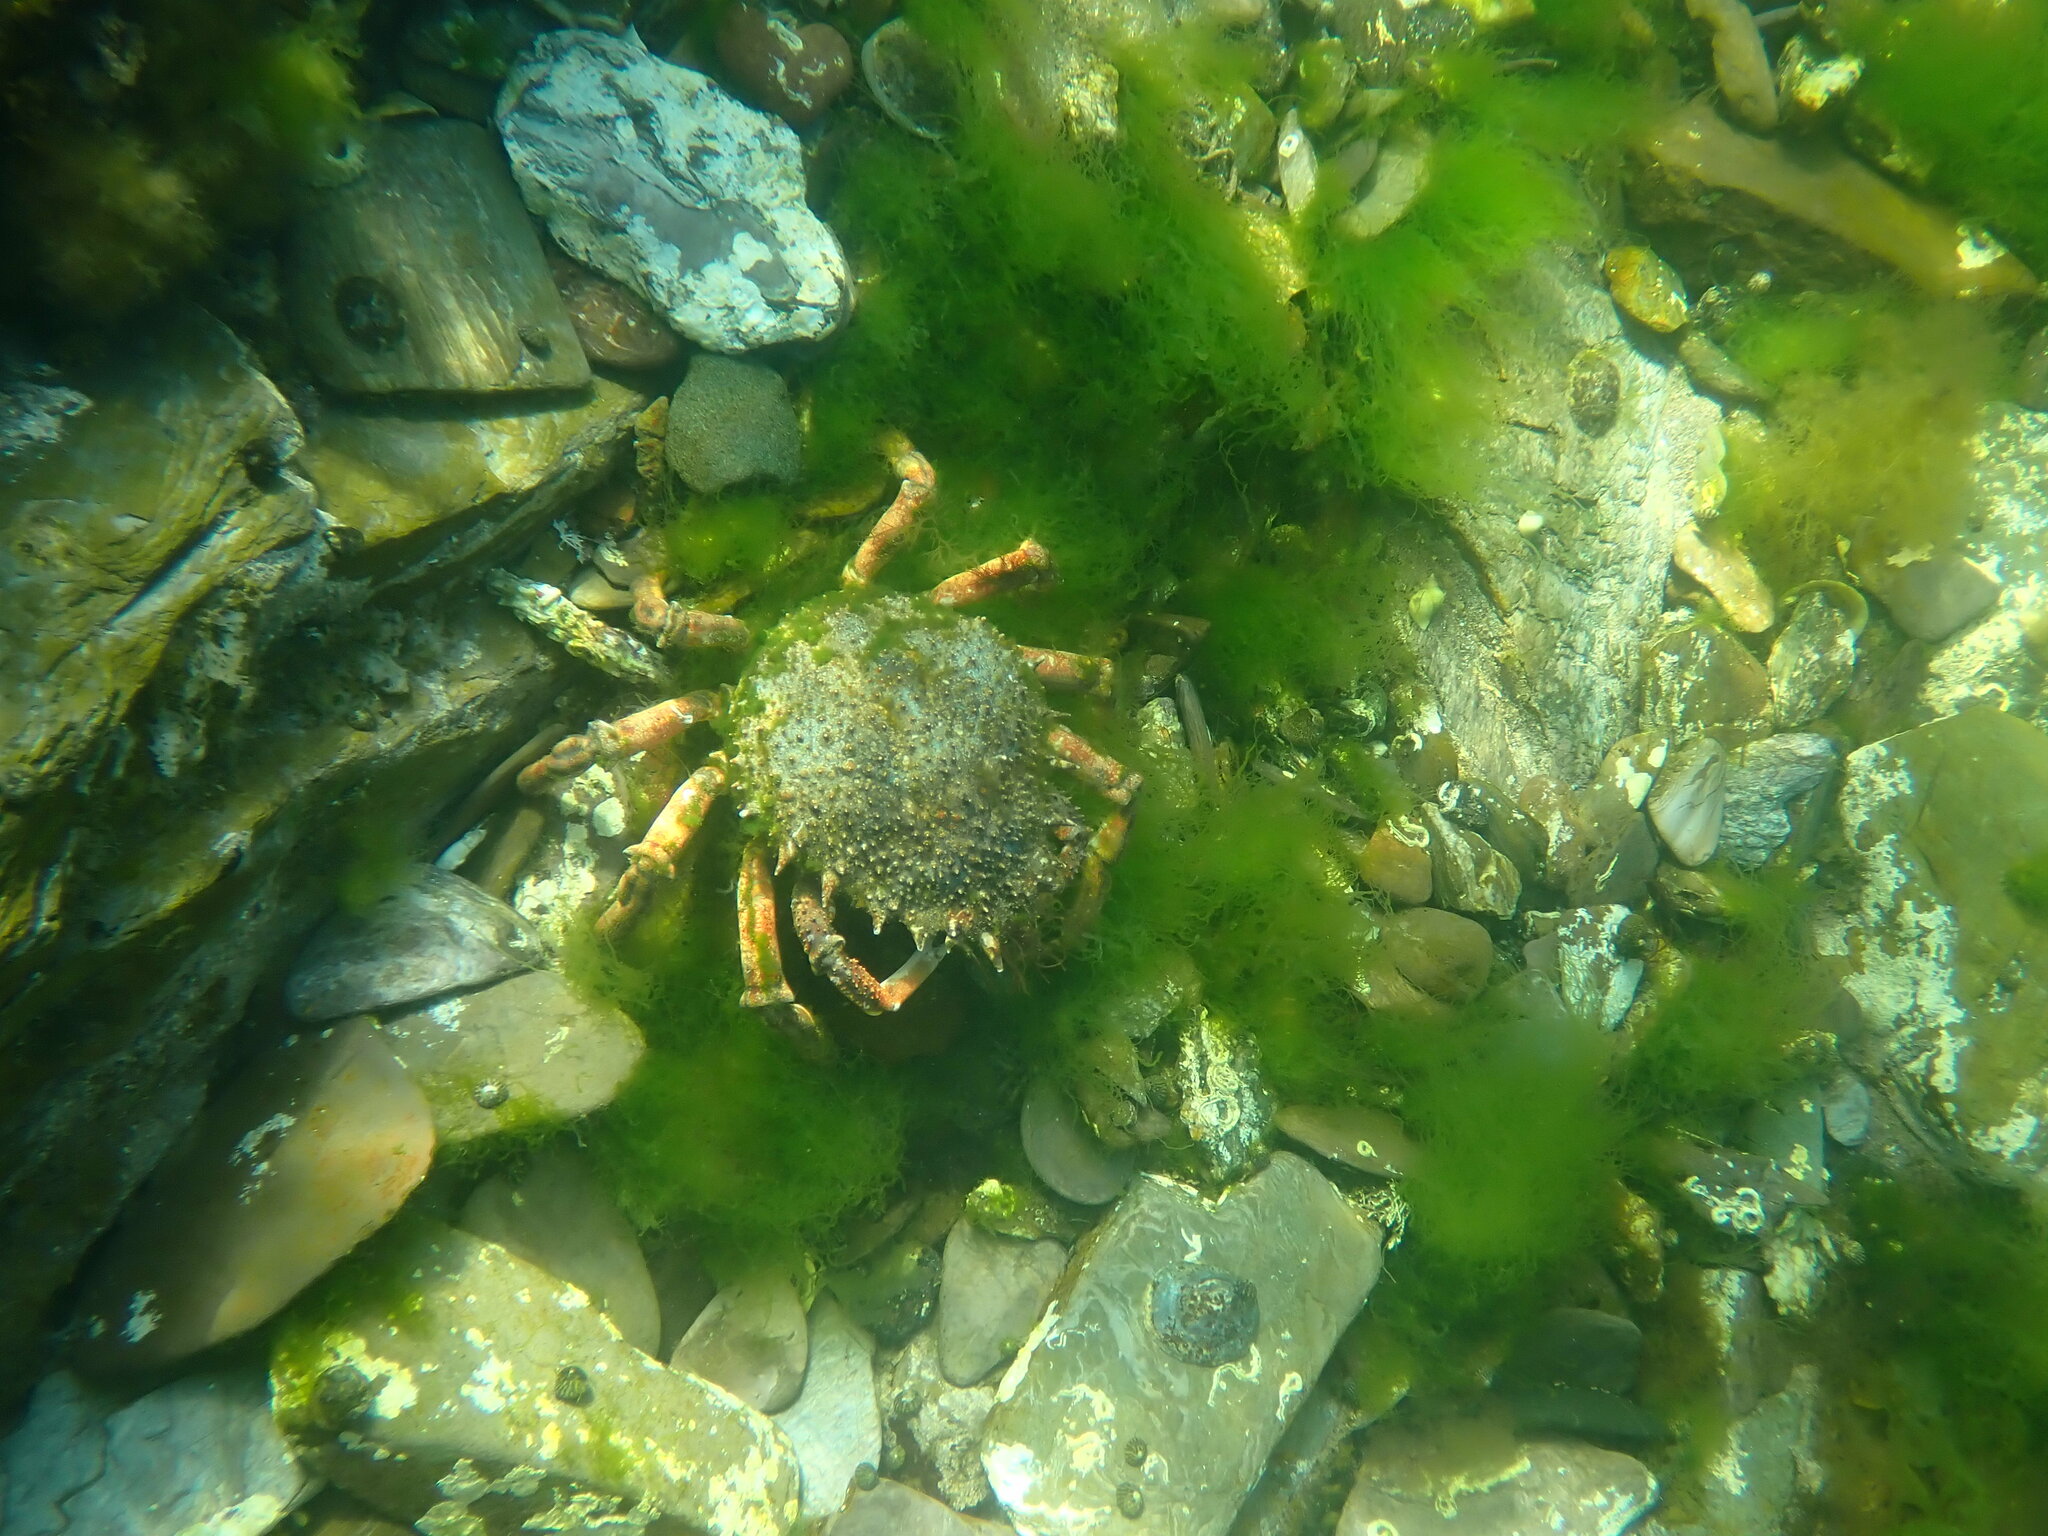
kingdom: Animalia
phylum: Arthropoda
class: Malacostraca
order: Decapoda
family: Majidae
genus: Maja
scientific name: Maja brachydactyla
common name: Common spider crab
